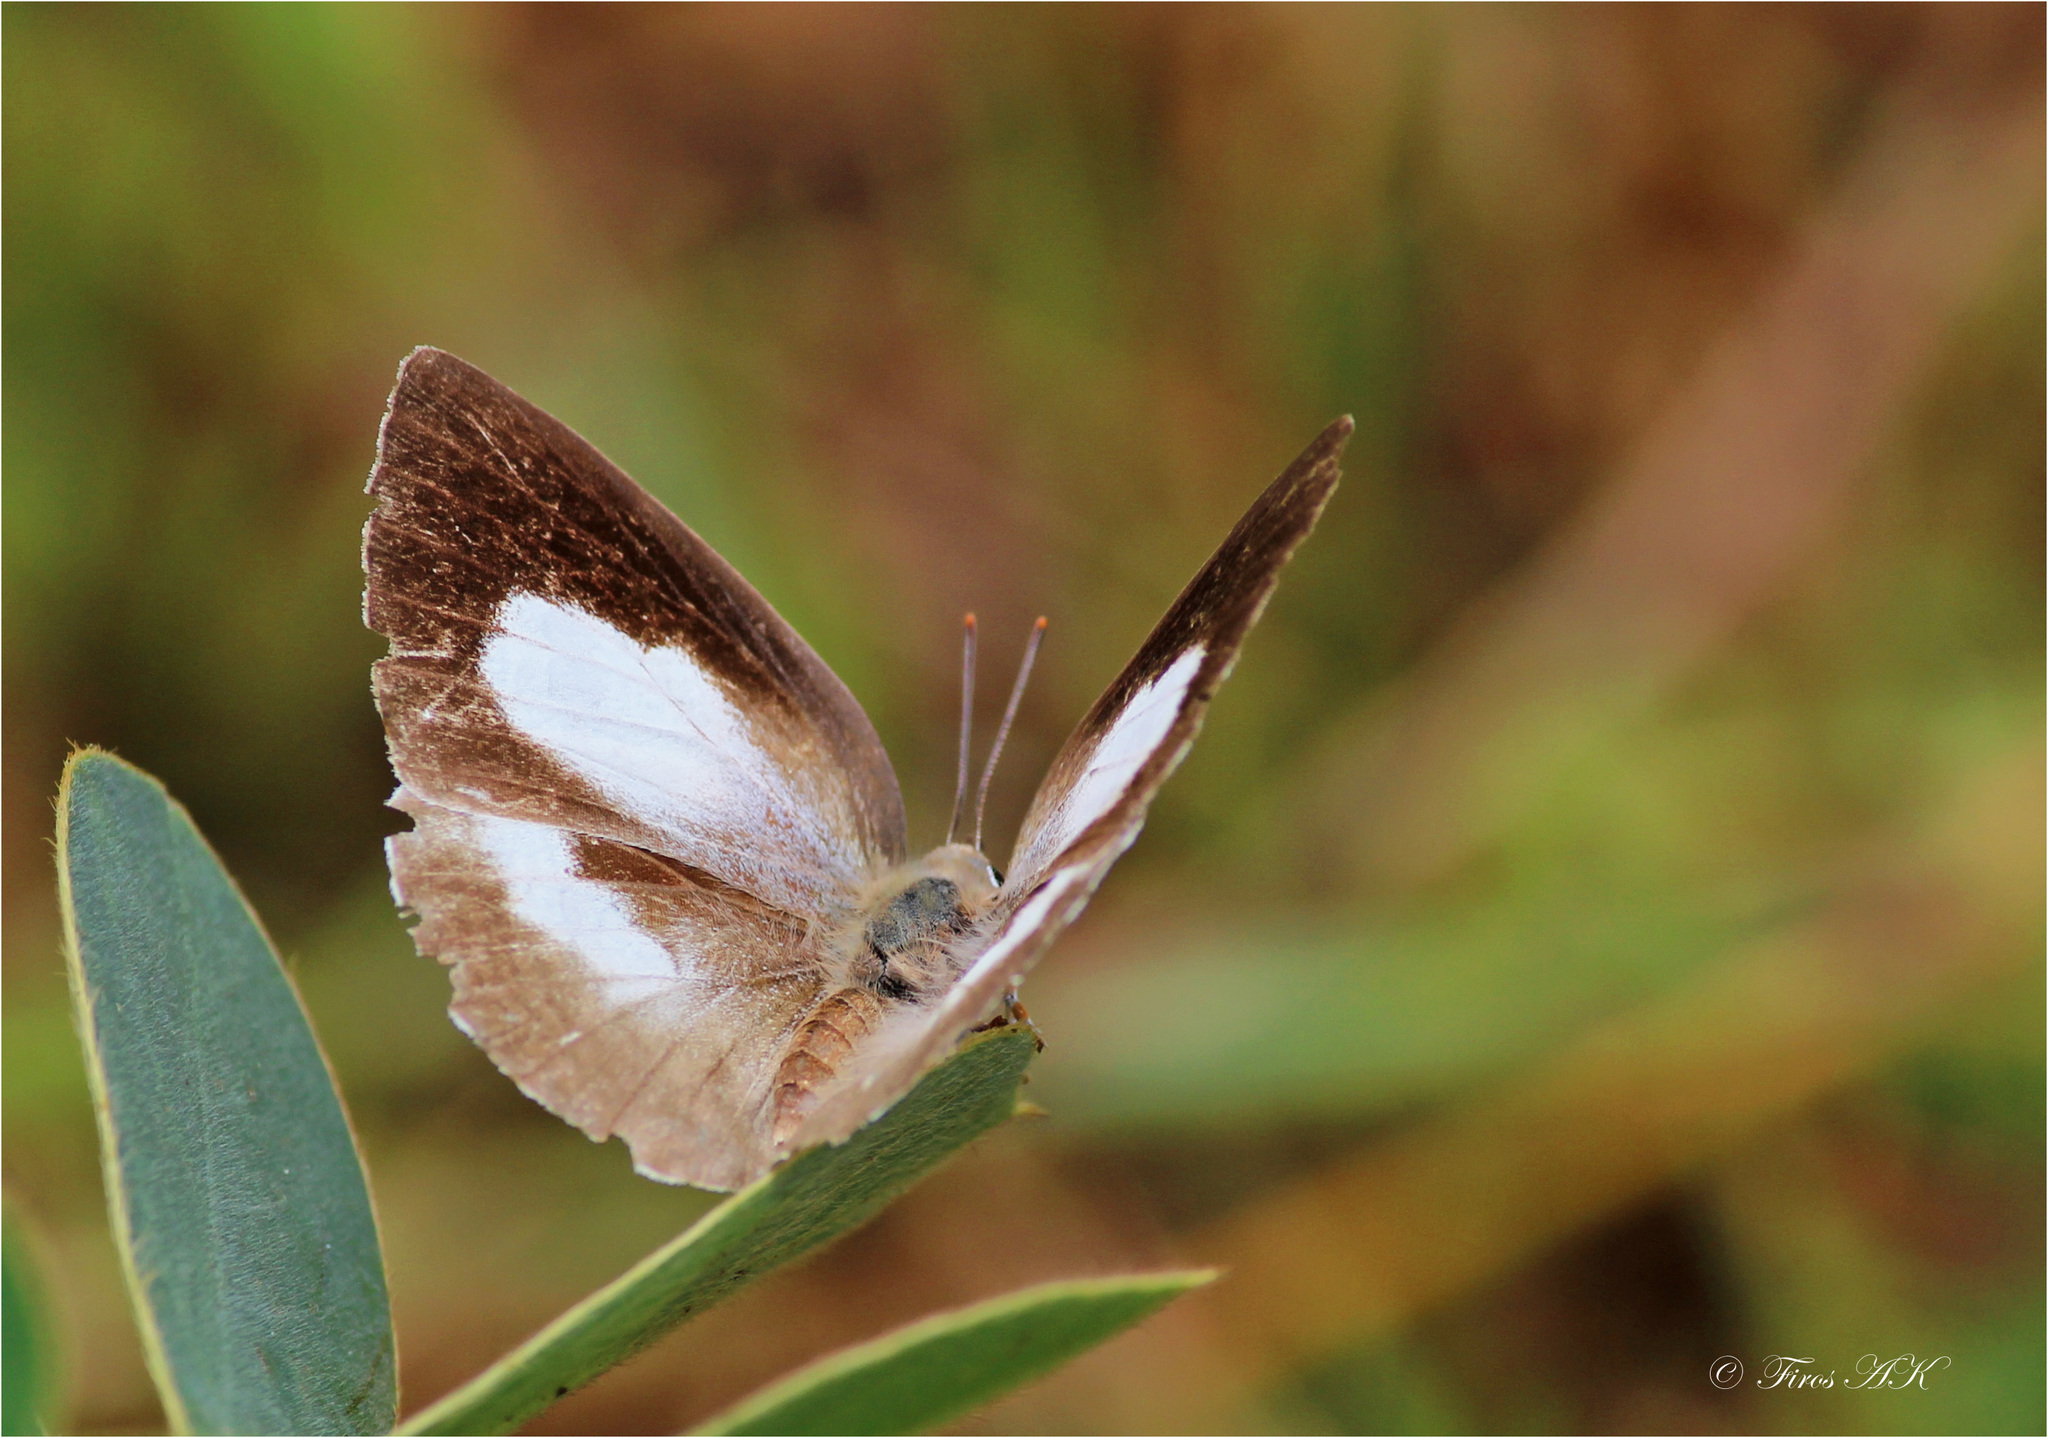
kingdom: Animalia
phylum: Arthropoda
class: Insecta
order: Lepidoptera
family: Lycaenidae
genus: Curetis
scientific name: Curetis thetis
